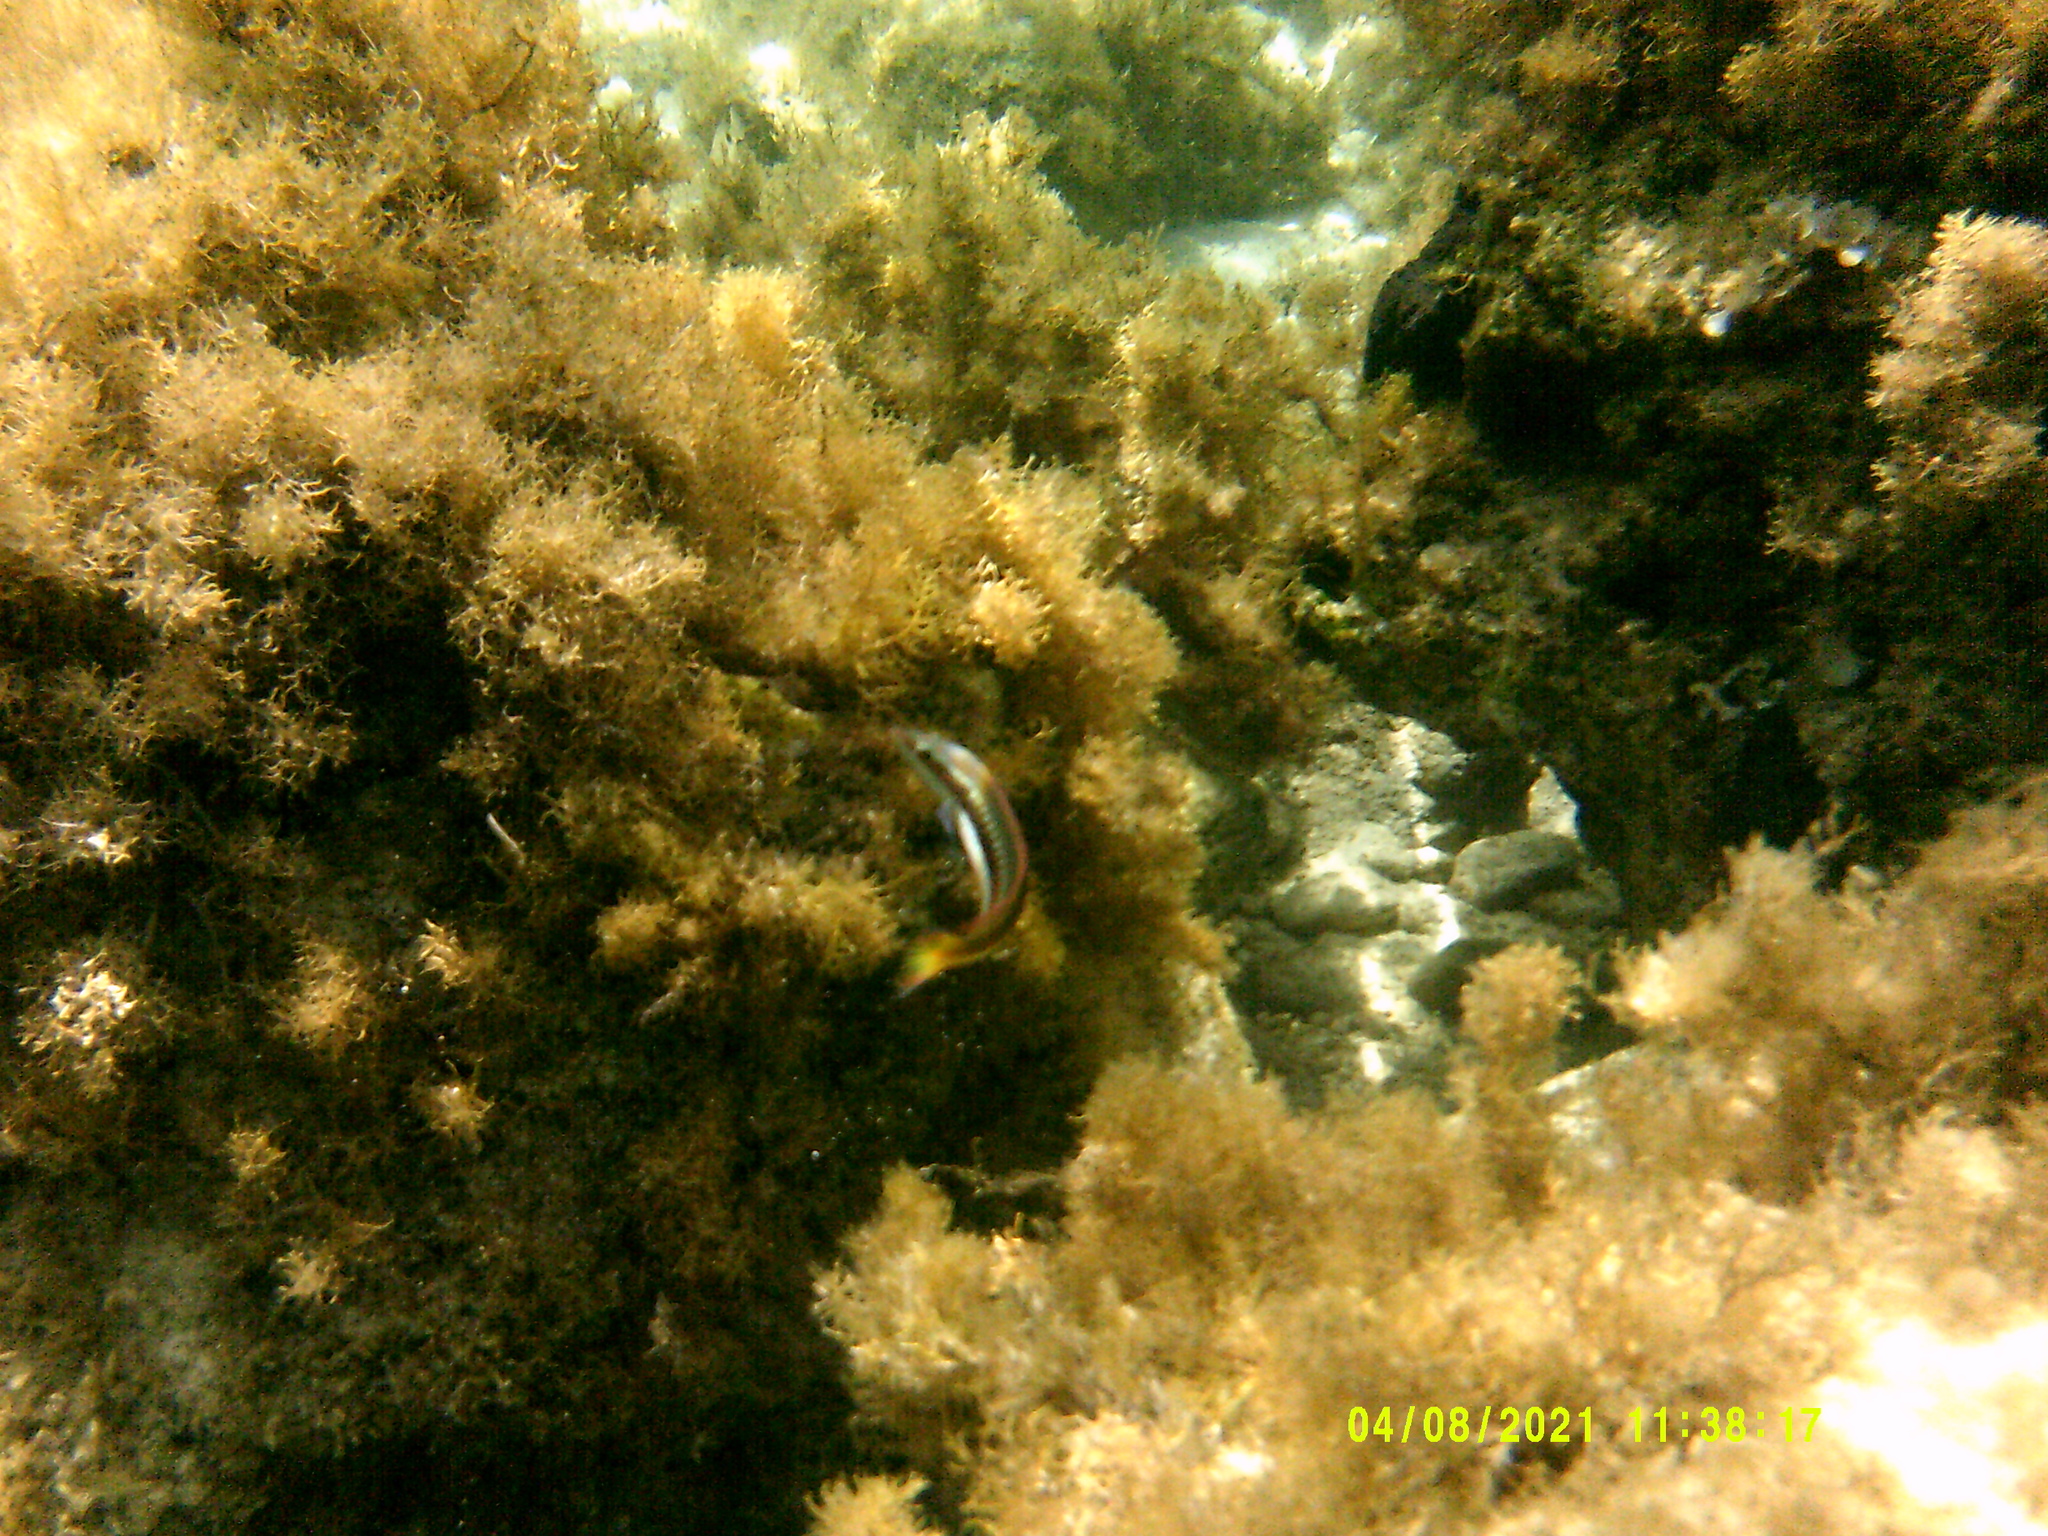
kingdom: Animalia
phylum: Chordata
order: Perciformes
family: Labridae
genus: Coris
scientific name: Coris julis
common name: Rainbow wrasse
